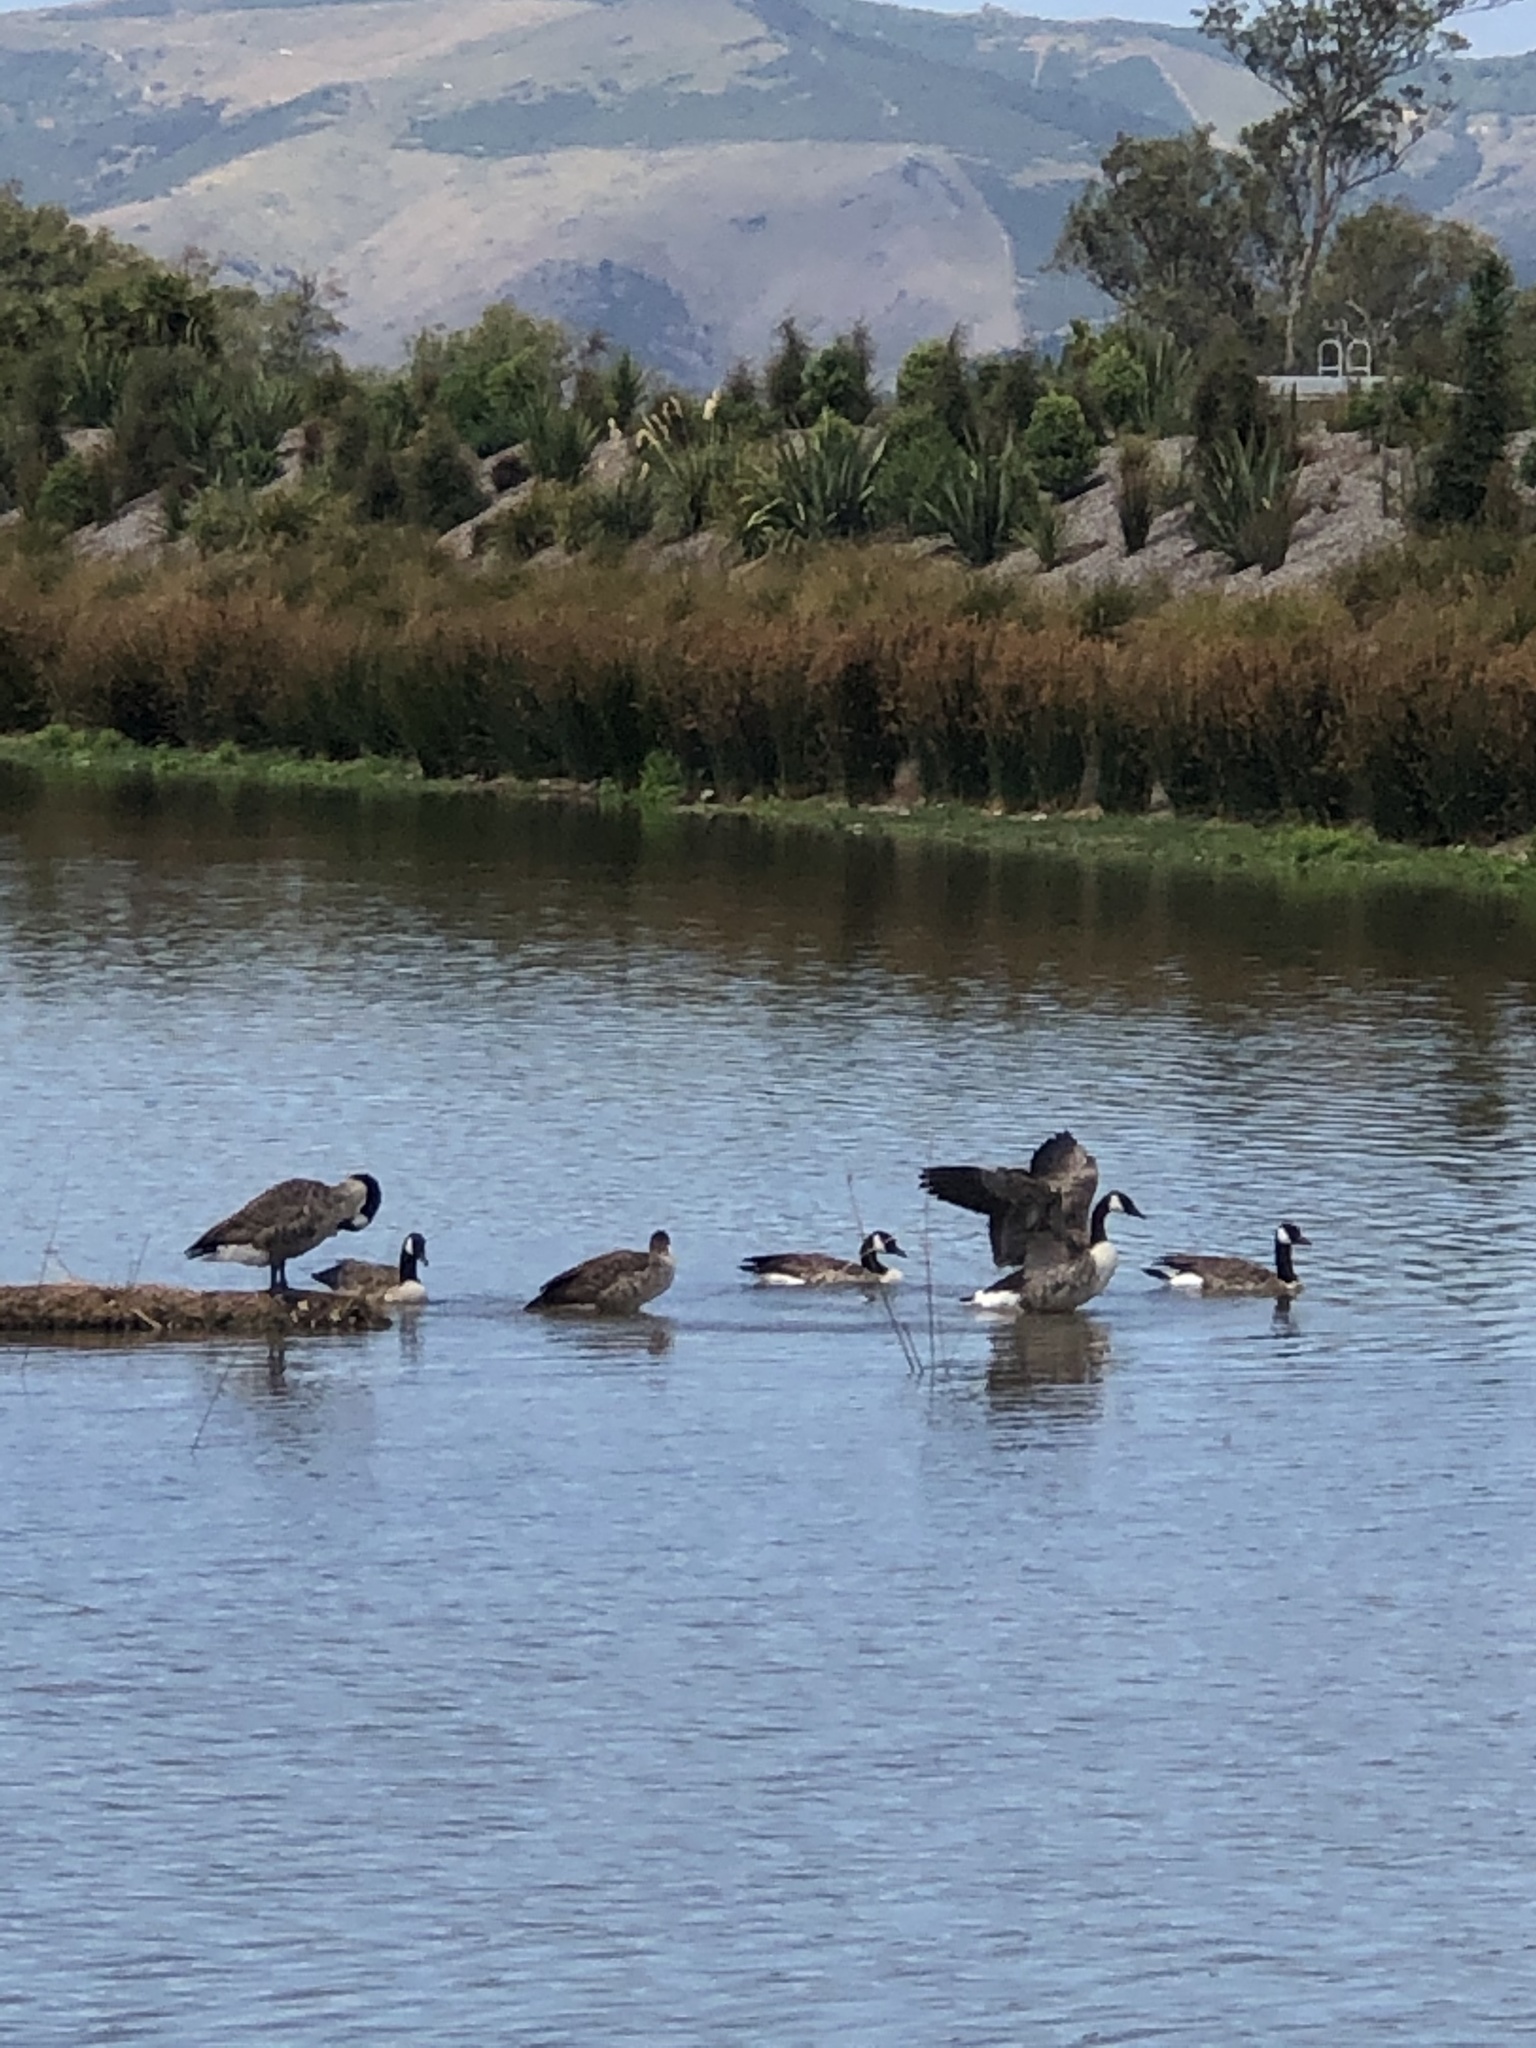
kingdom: Animalia
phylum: Chordata
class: Aves
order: Anseriformes
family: Anatidae
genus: Branta
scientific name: Branta canadensis
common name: Canada goose
